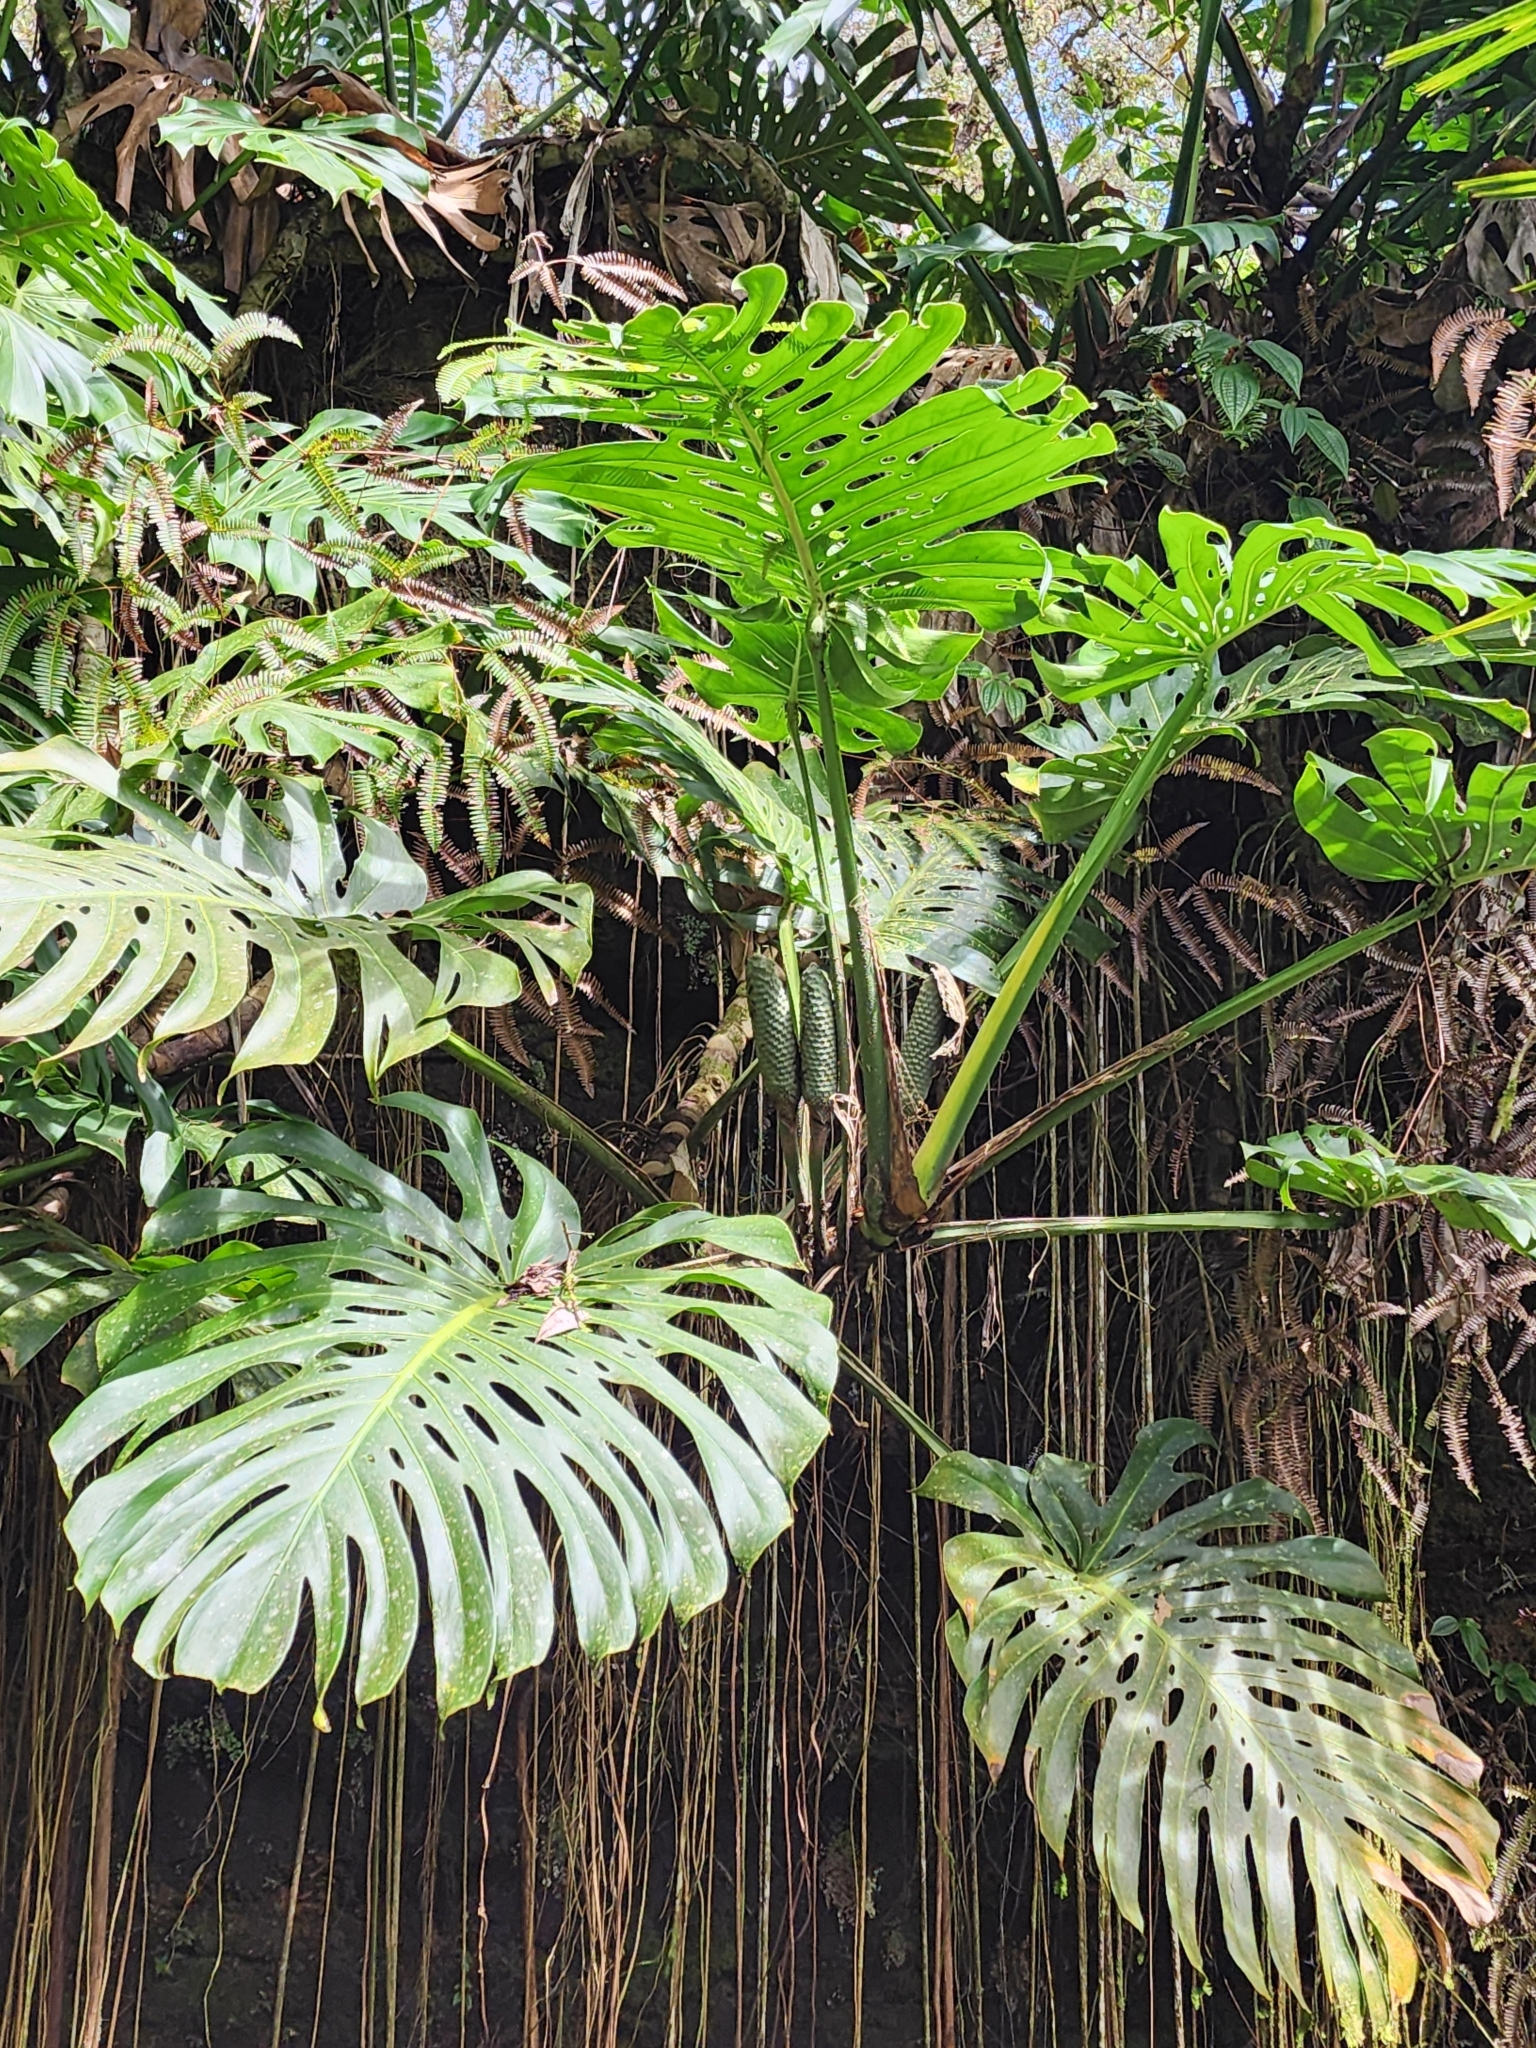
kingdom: Plantae
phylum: Tracheophyta
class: Liliopsida
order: Alismatales
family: Araceae
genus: Monstera
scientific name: Monstera deliciosa
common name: Cut-leaf-philodendron
